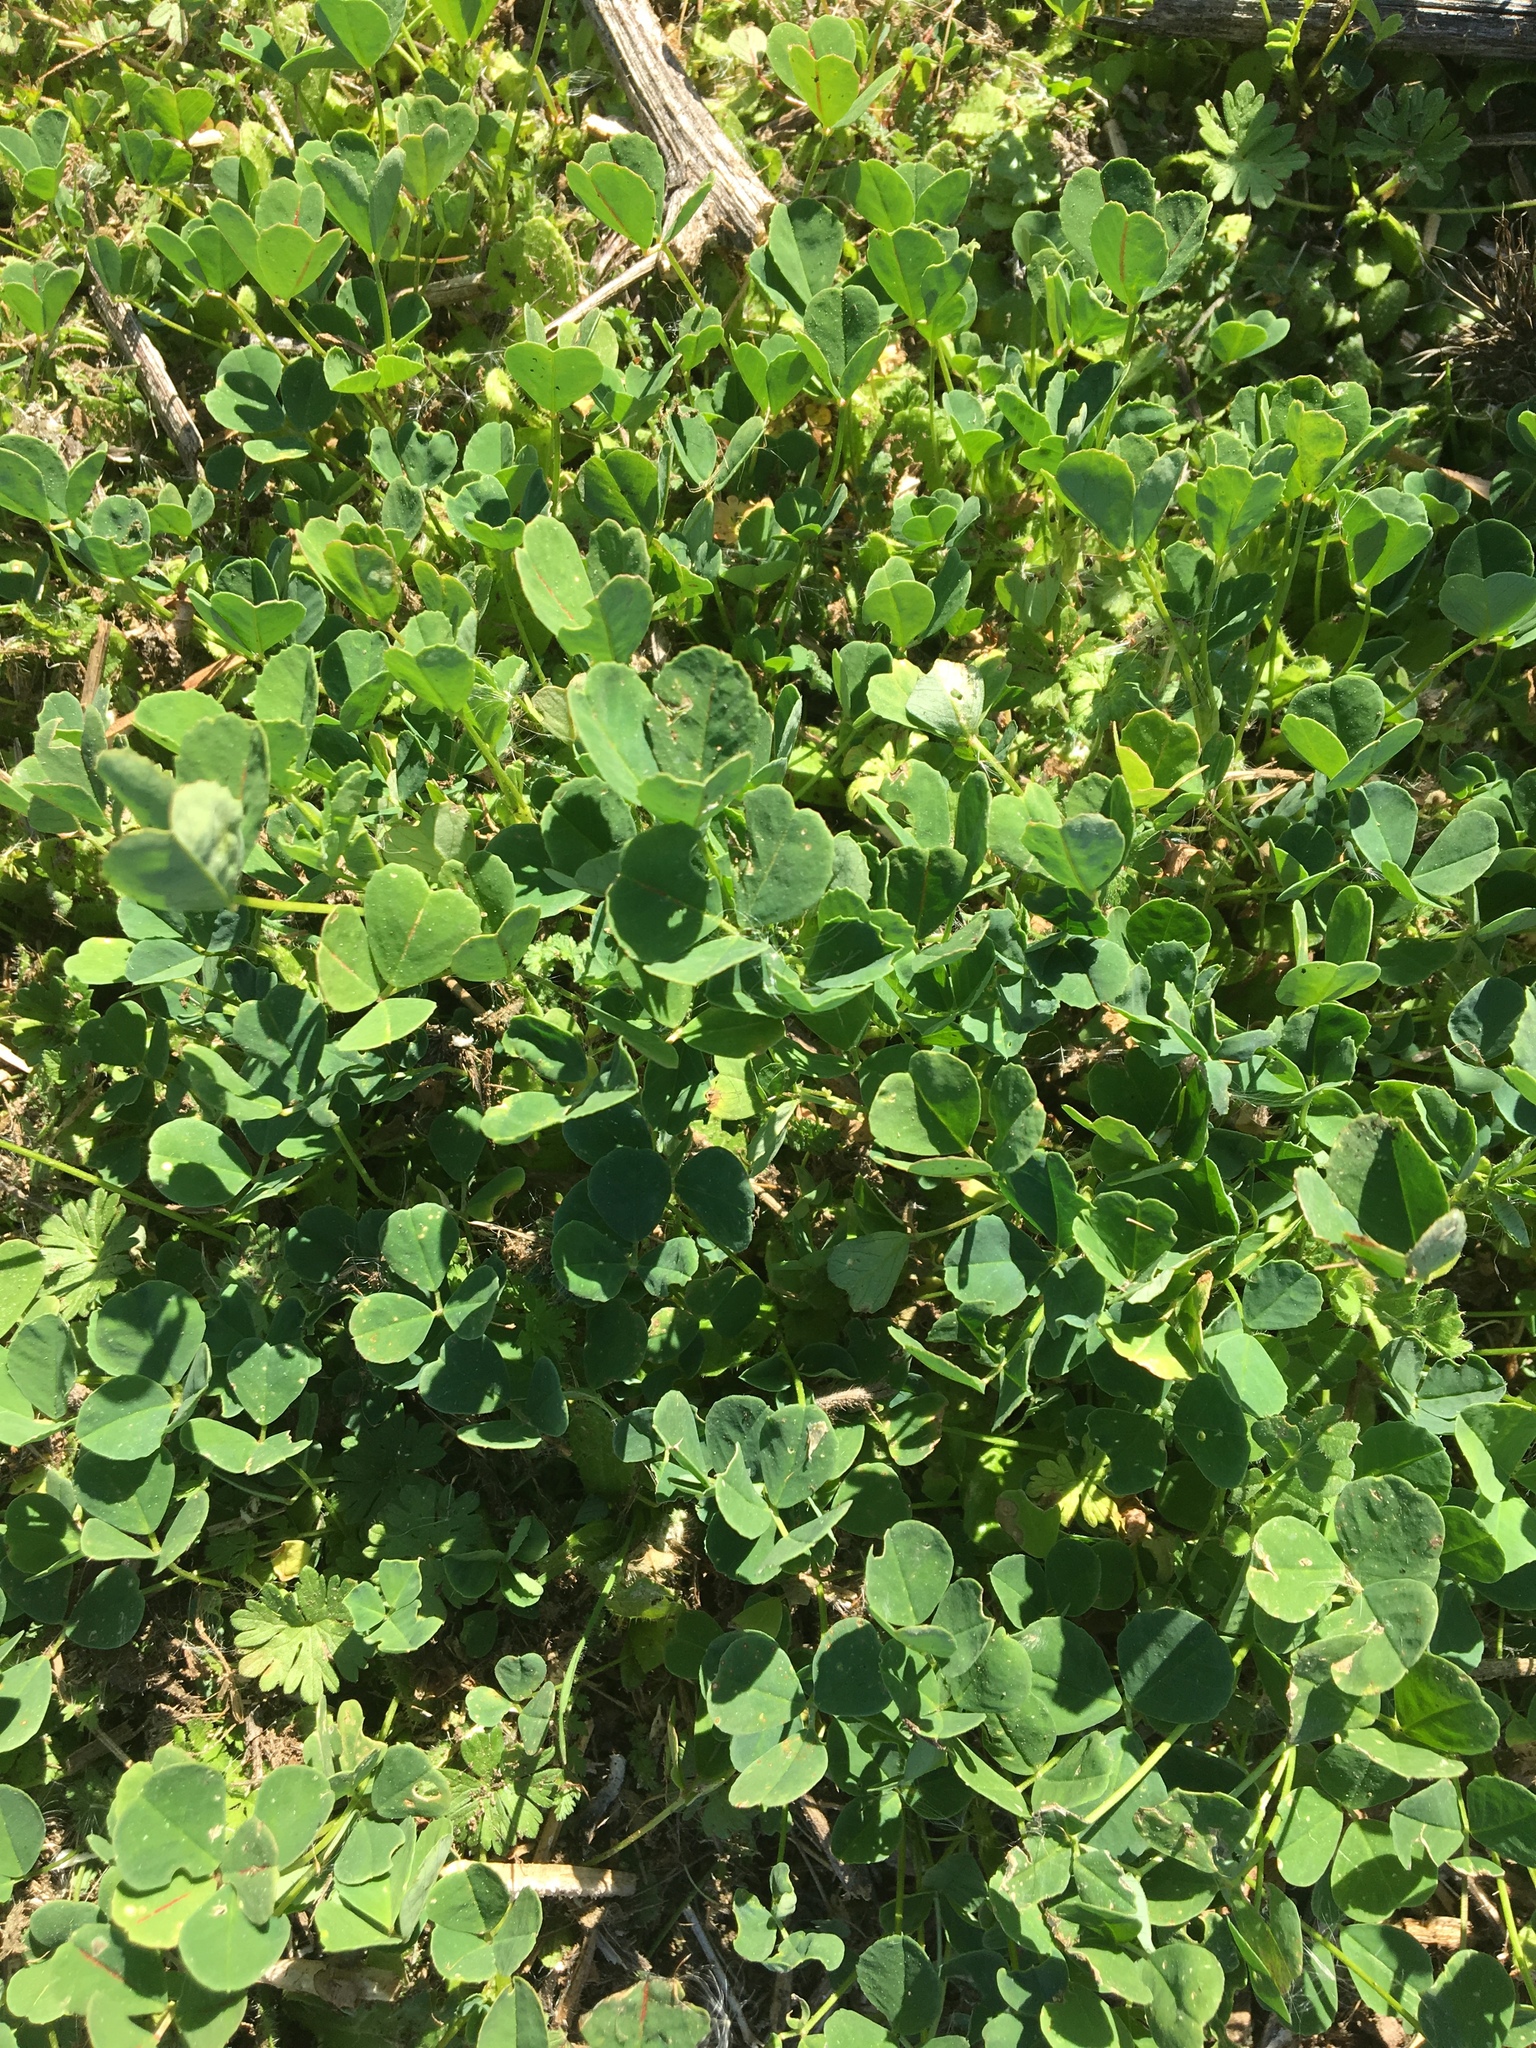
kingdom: Plantae
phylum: Tracheophyta
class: Magnoliopsida
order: Fabales
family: Fabaceae
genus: Medicago
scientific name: Medicago polymorpha
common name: Burclover
